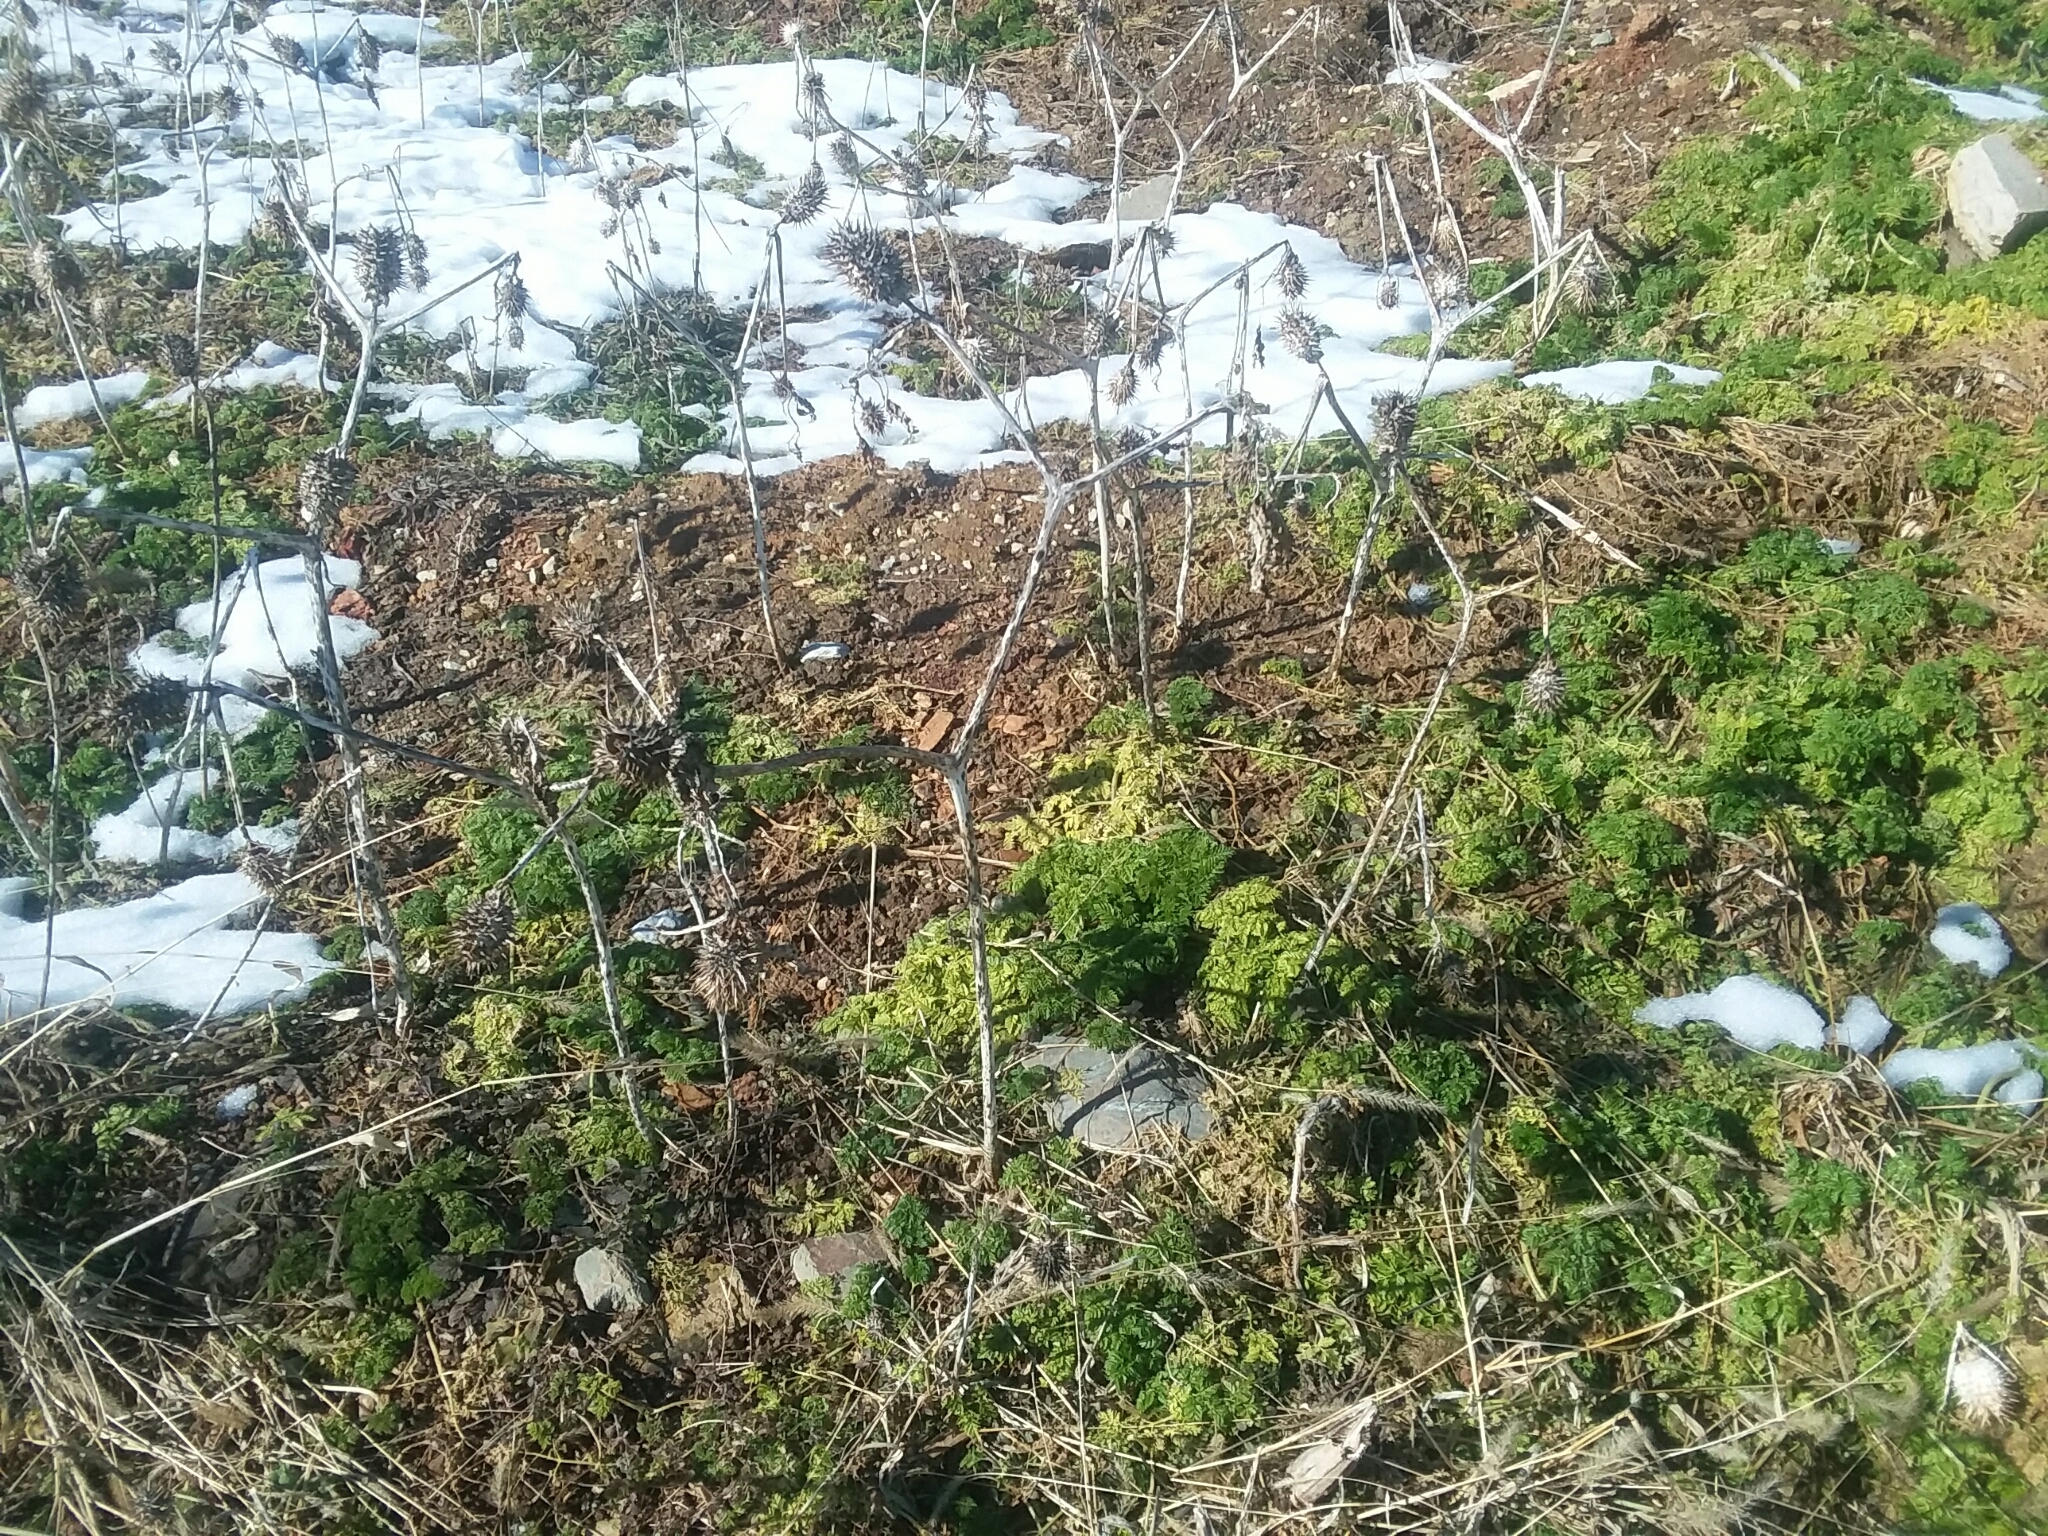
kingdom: Plantae
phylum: Tracheophyta
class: Magnoliopsida
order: Solanales
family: Solanaceae
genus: Datura
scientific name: Datura stramonium
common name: Thorn-apple
